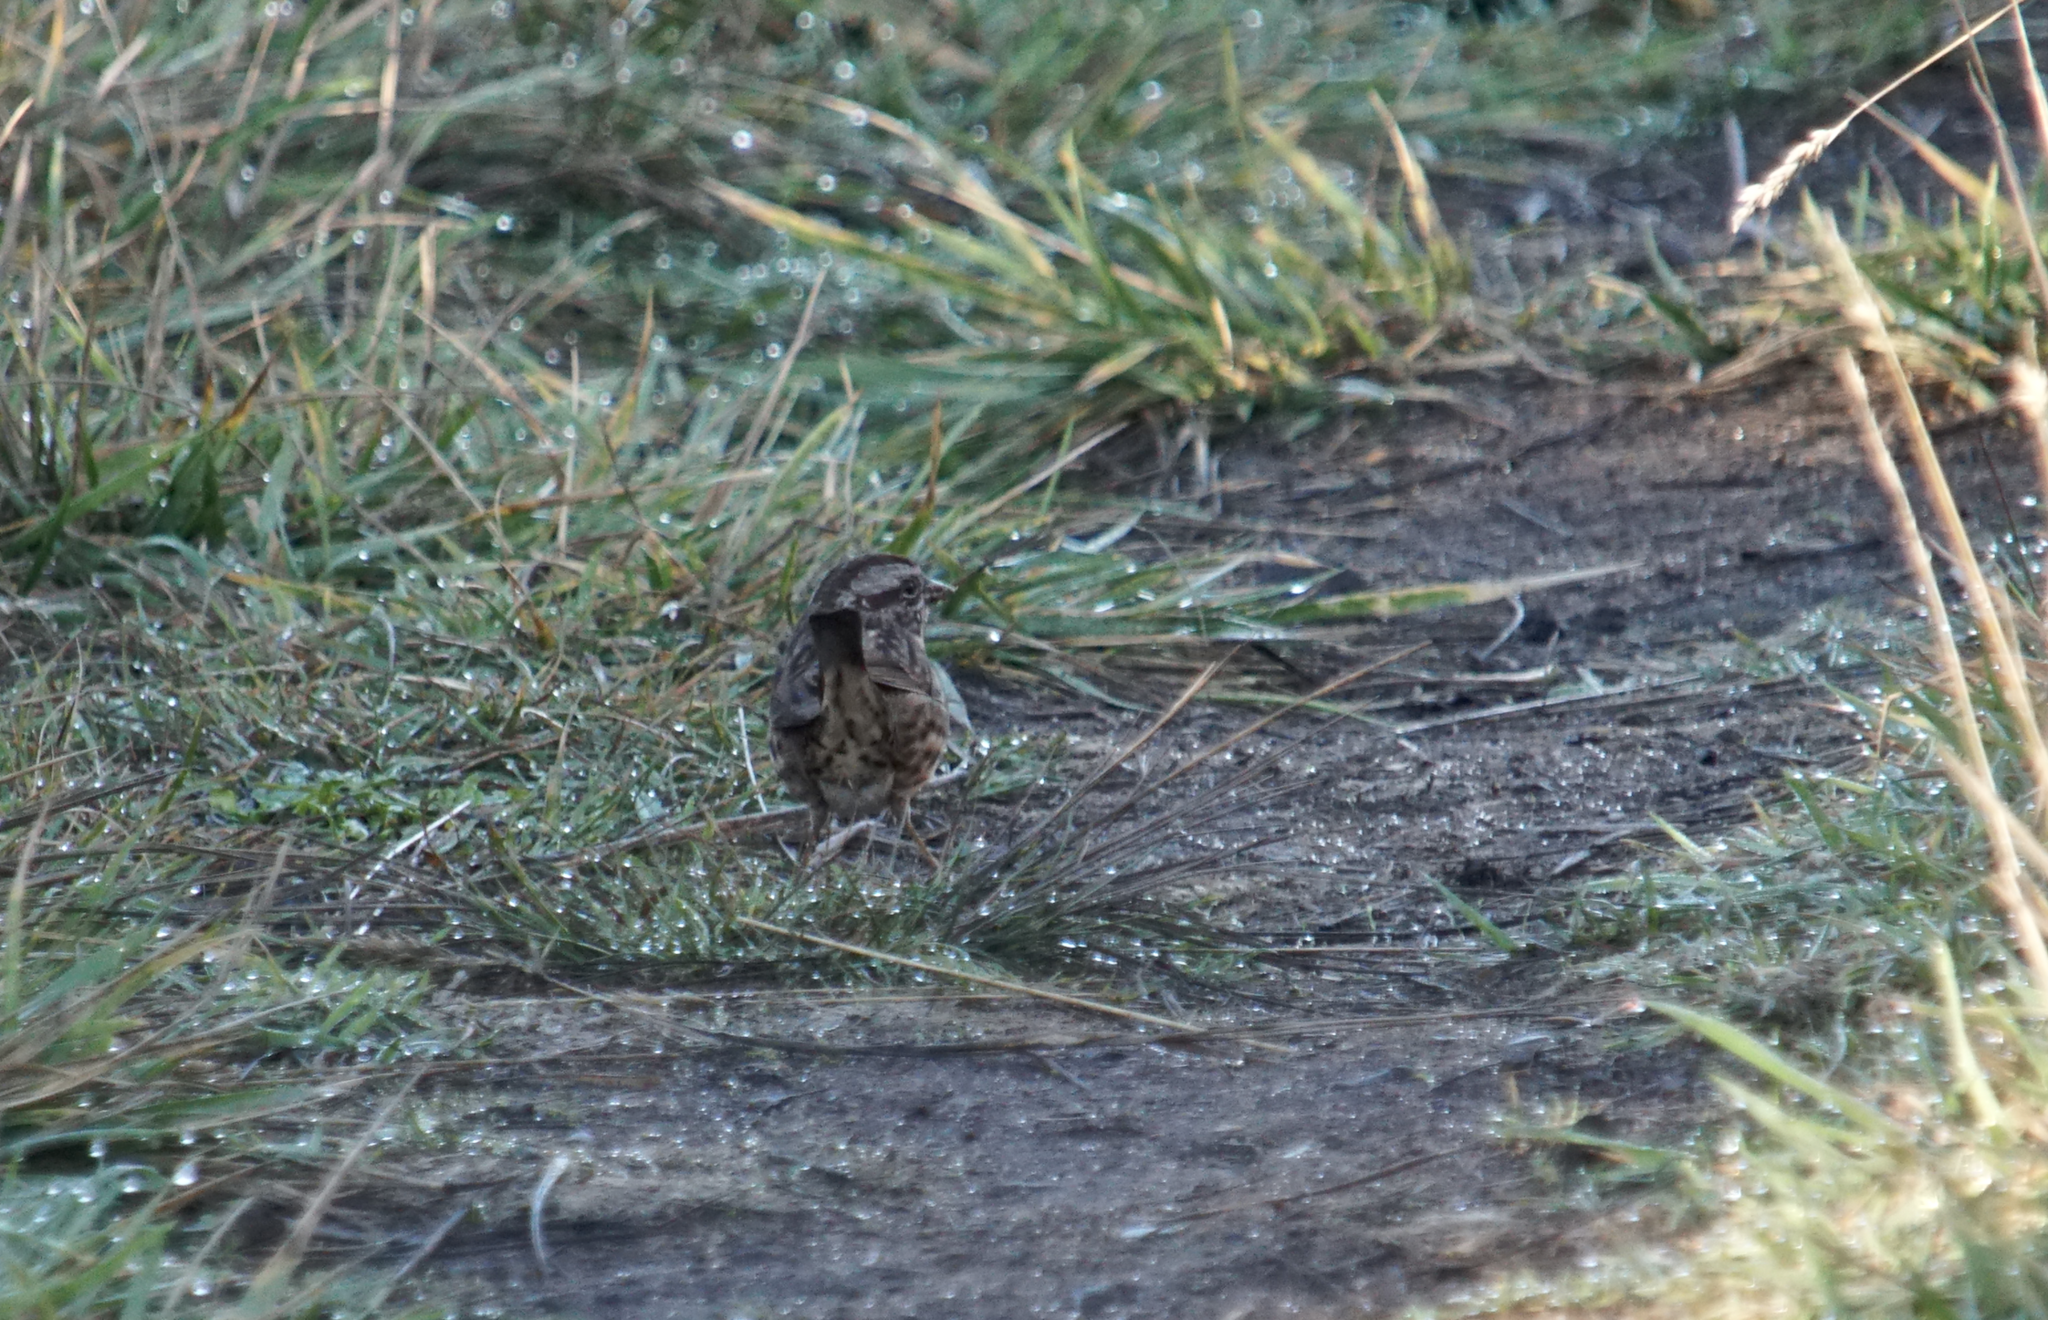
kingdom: Animalia
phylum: Chordata
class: Aves
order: Passeriformes
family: Passerellidae
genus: Melospiza
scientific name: Melospiza melodia
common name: Song sparrow
